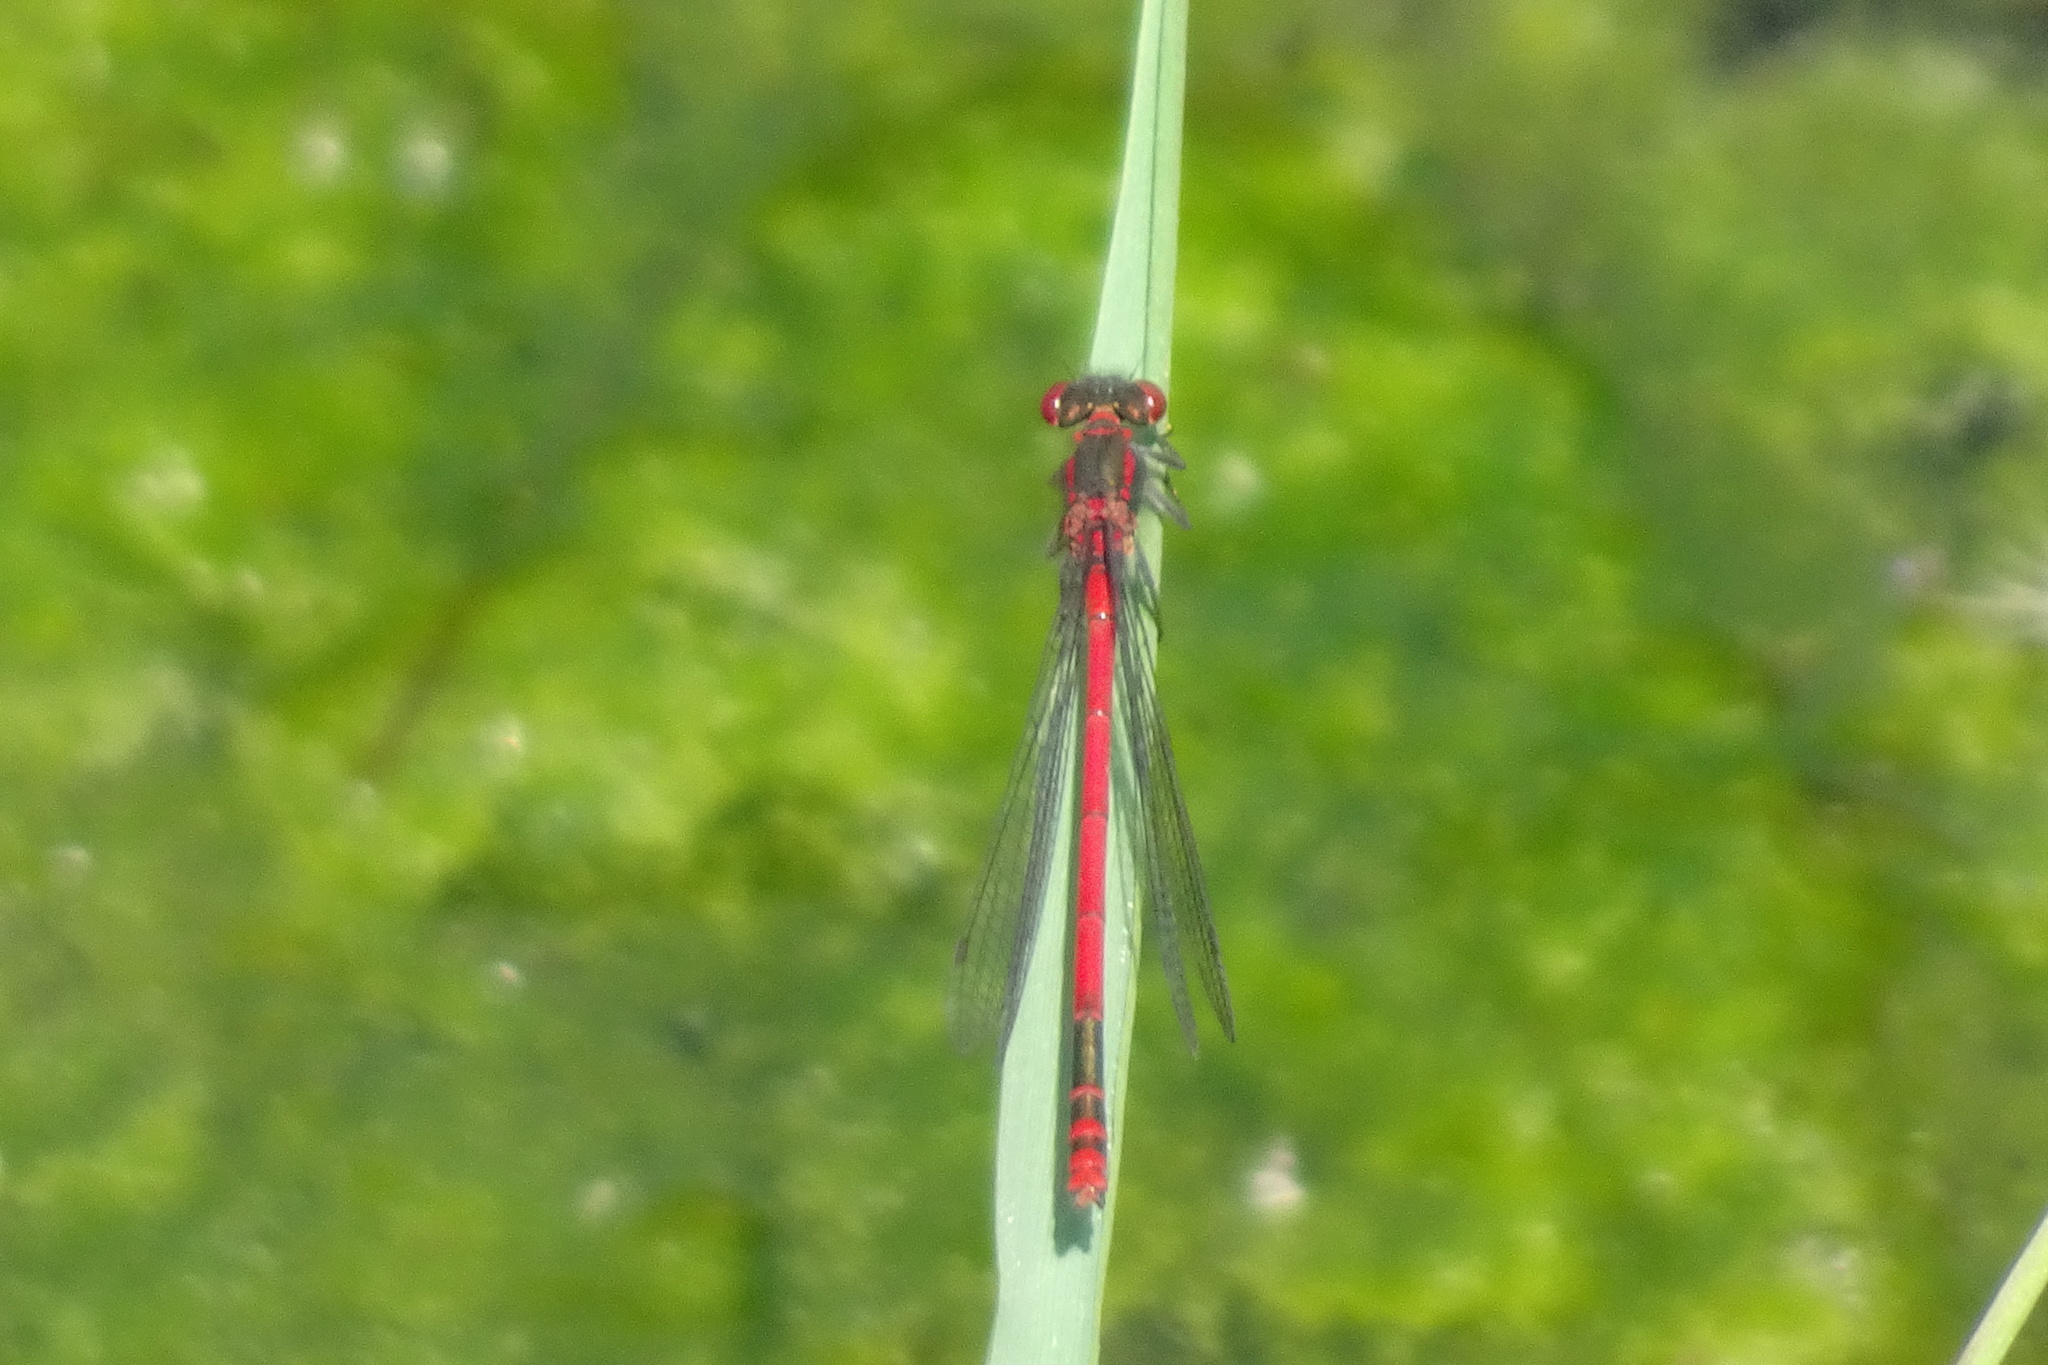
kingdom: Animalia
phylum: Arthropoda
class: Insecta
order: Odonata
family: Coenagrionidae
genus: Pyrrhosoma
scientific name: Pyrrhosoma nymphula
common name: Large red damsel
